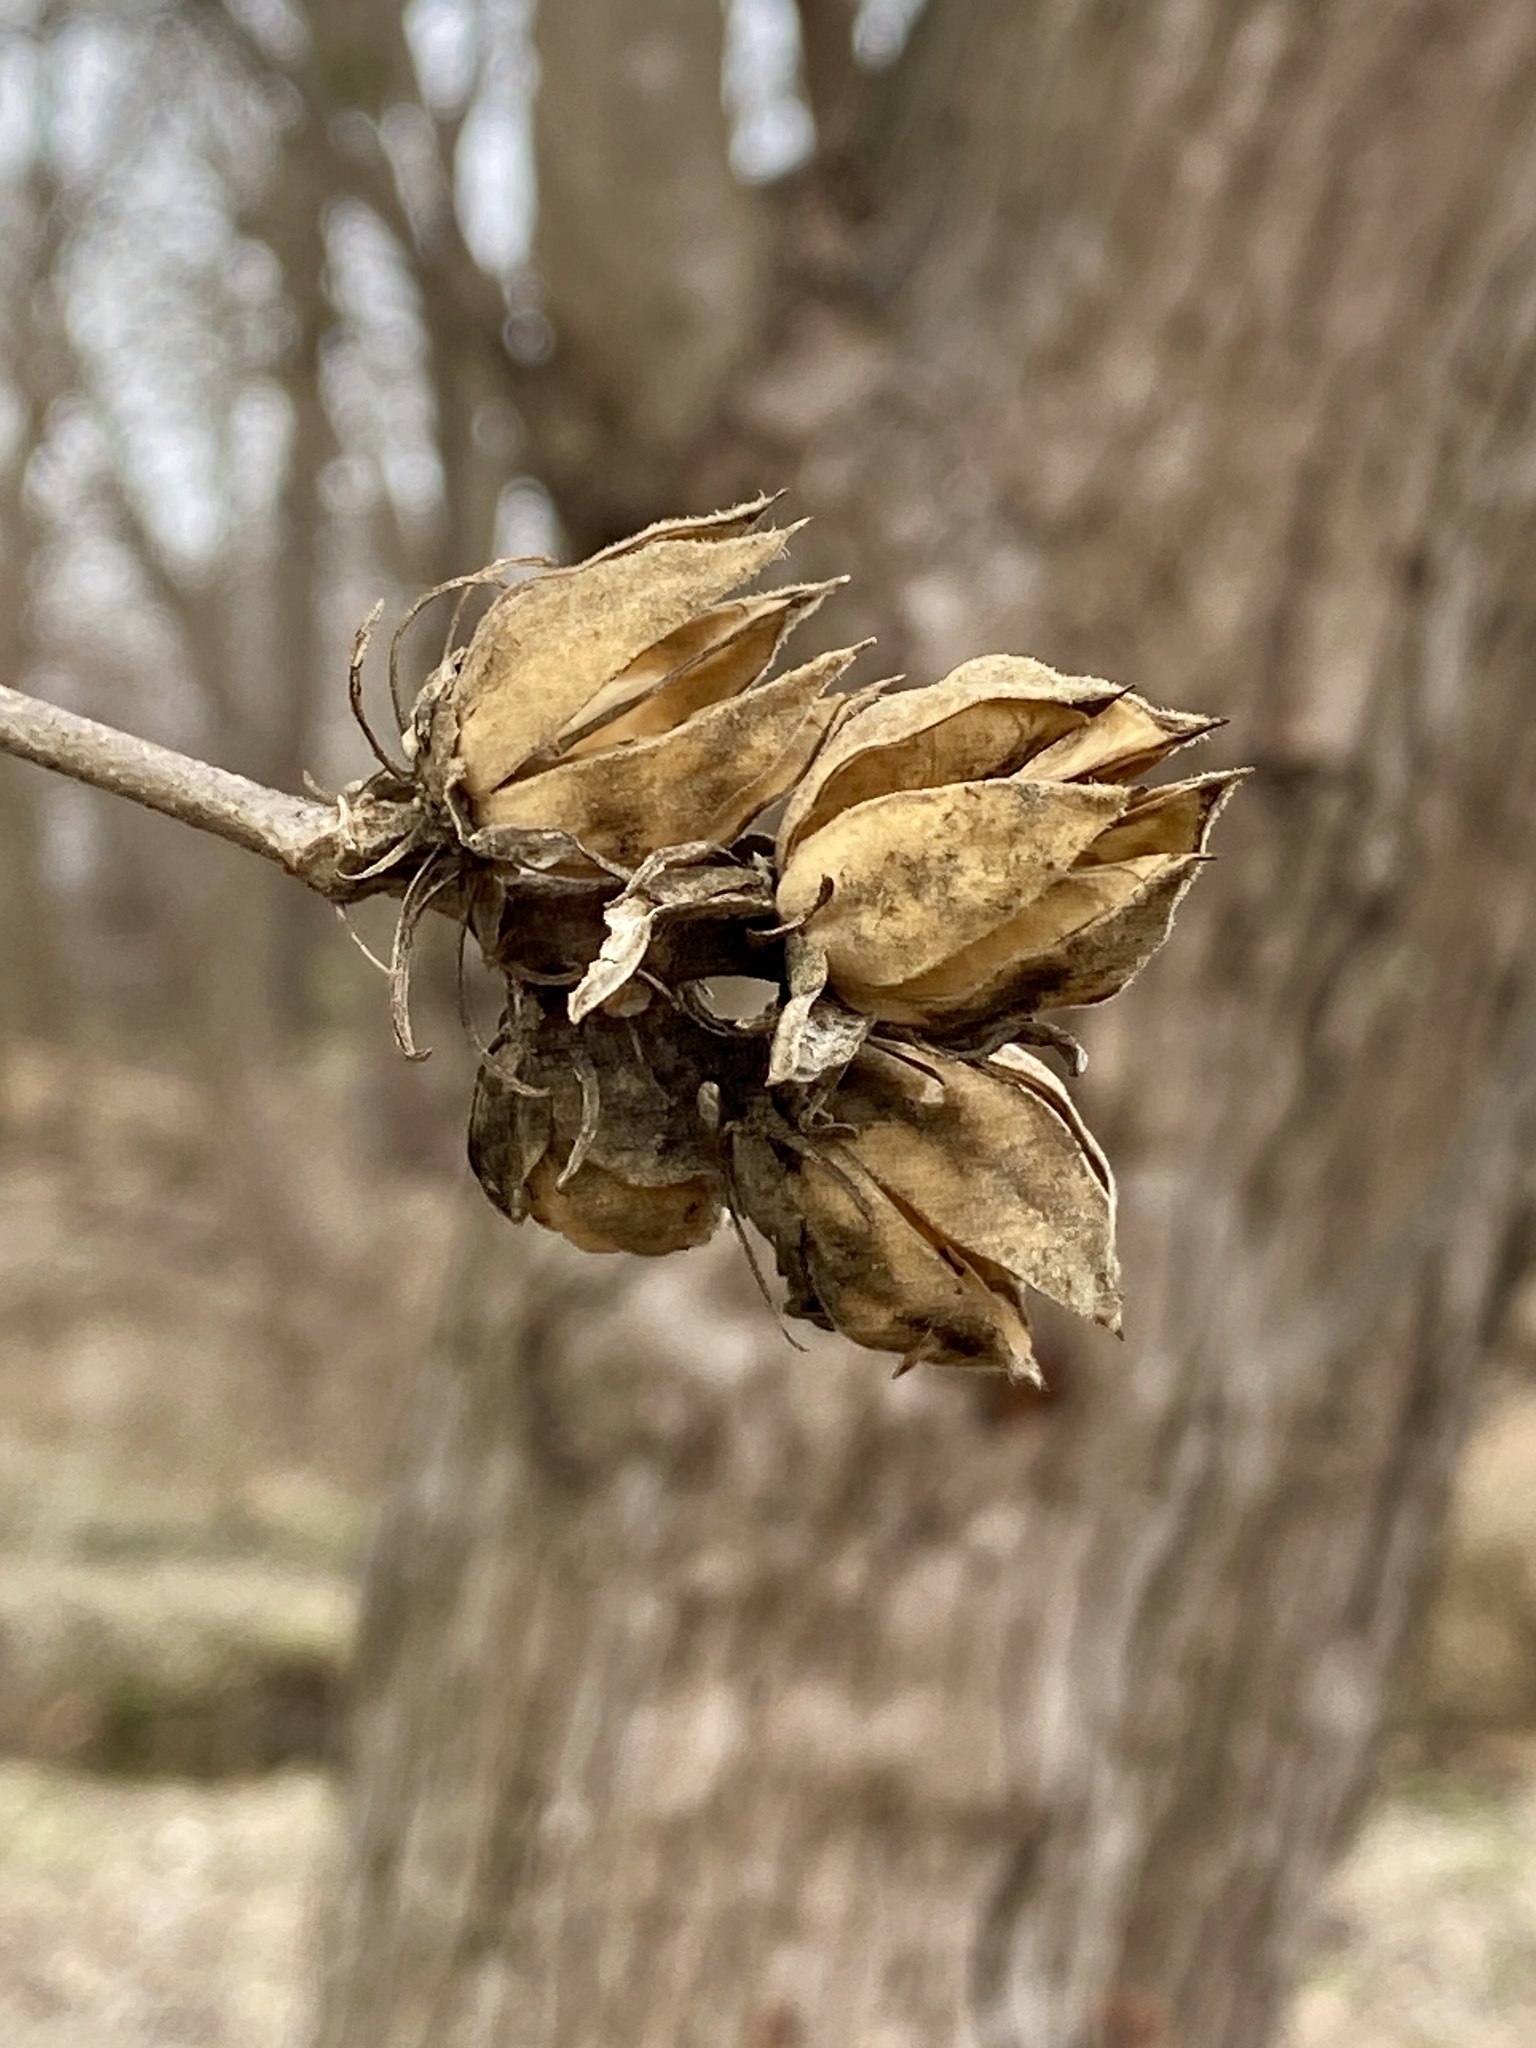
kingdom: Plantae
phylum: Tracheophyta
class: Magnoliopsida
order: Malvales
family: Malvaceae
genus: Hibiscus
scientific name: Hibiscus syriacus
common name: Syrian ketmia
